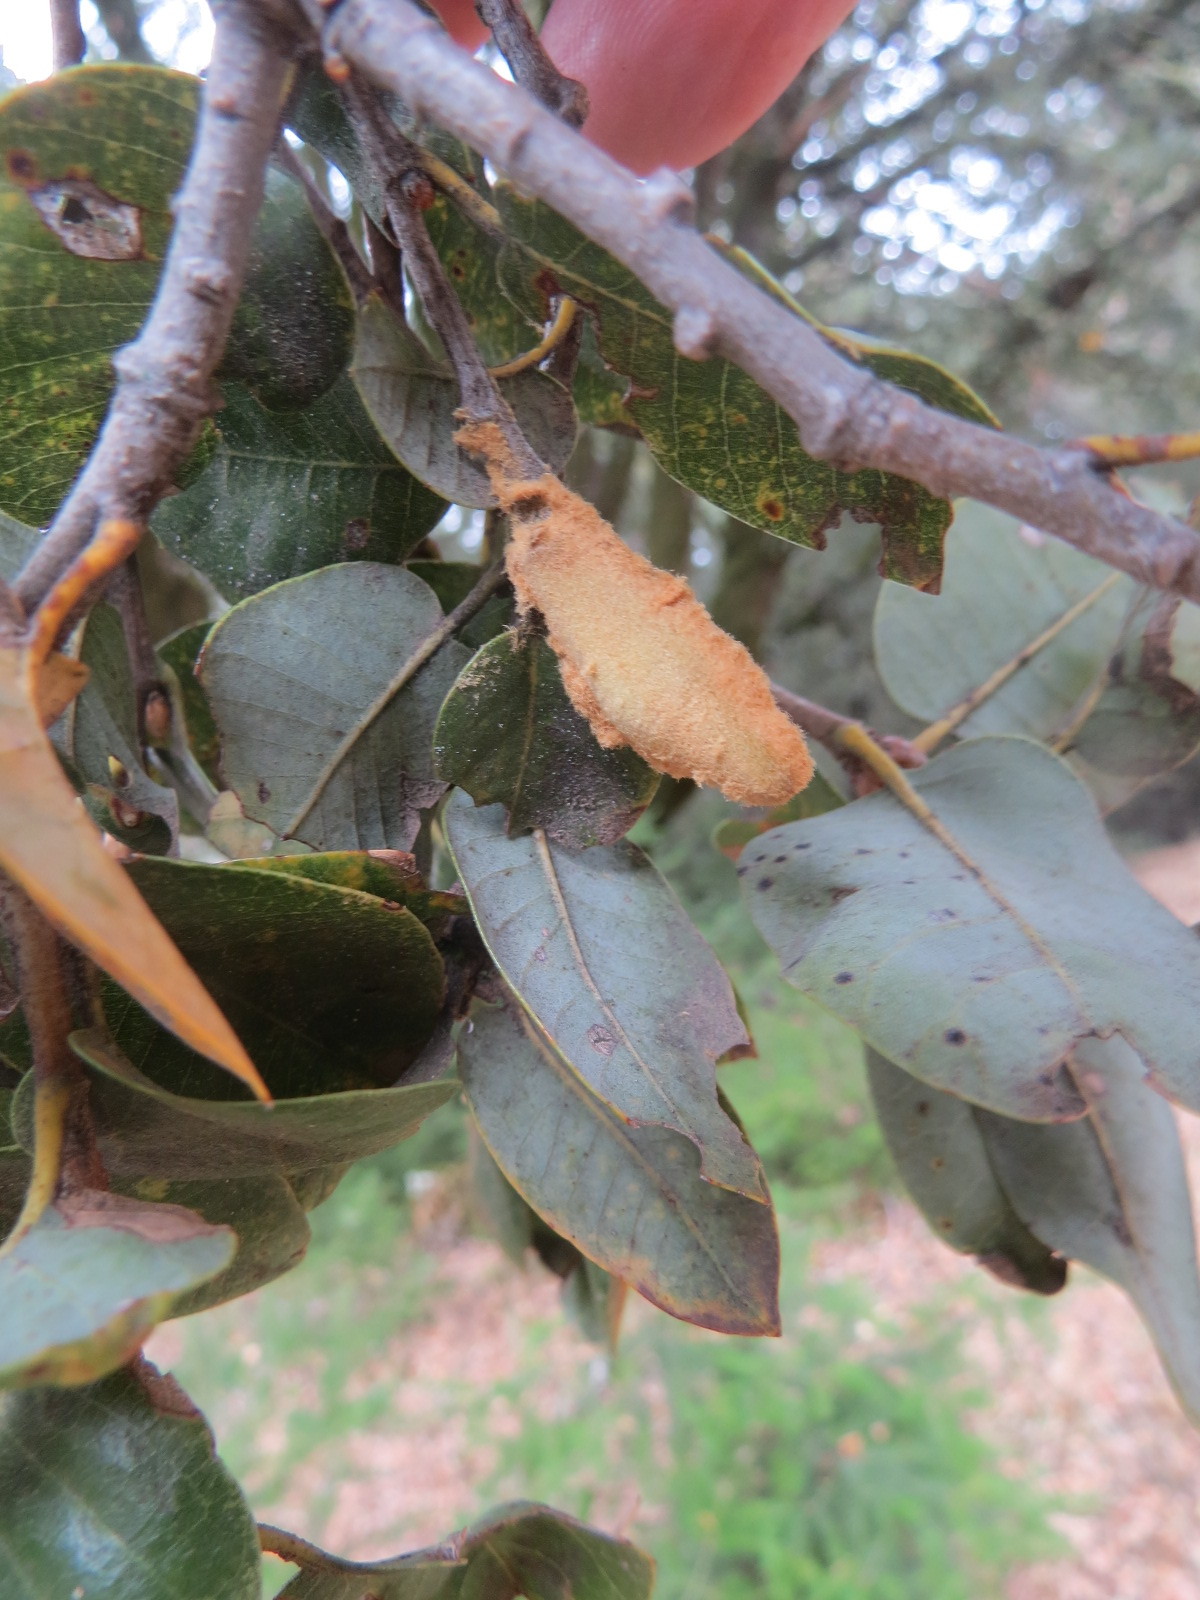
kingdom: Animalia
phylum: Arthropoda
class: Insecta
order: Hymenoptera
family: Cynipidae
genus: Heteroecus
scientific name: Heteroecus
